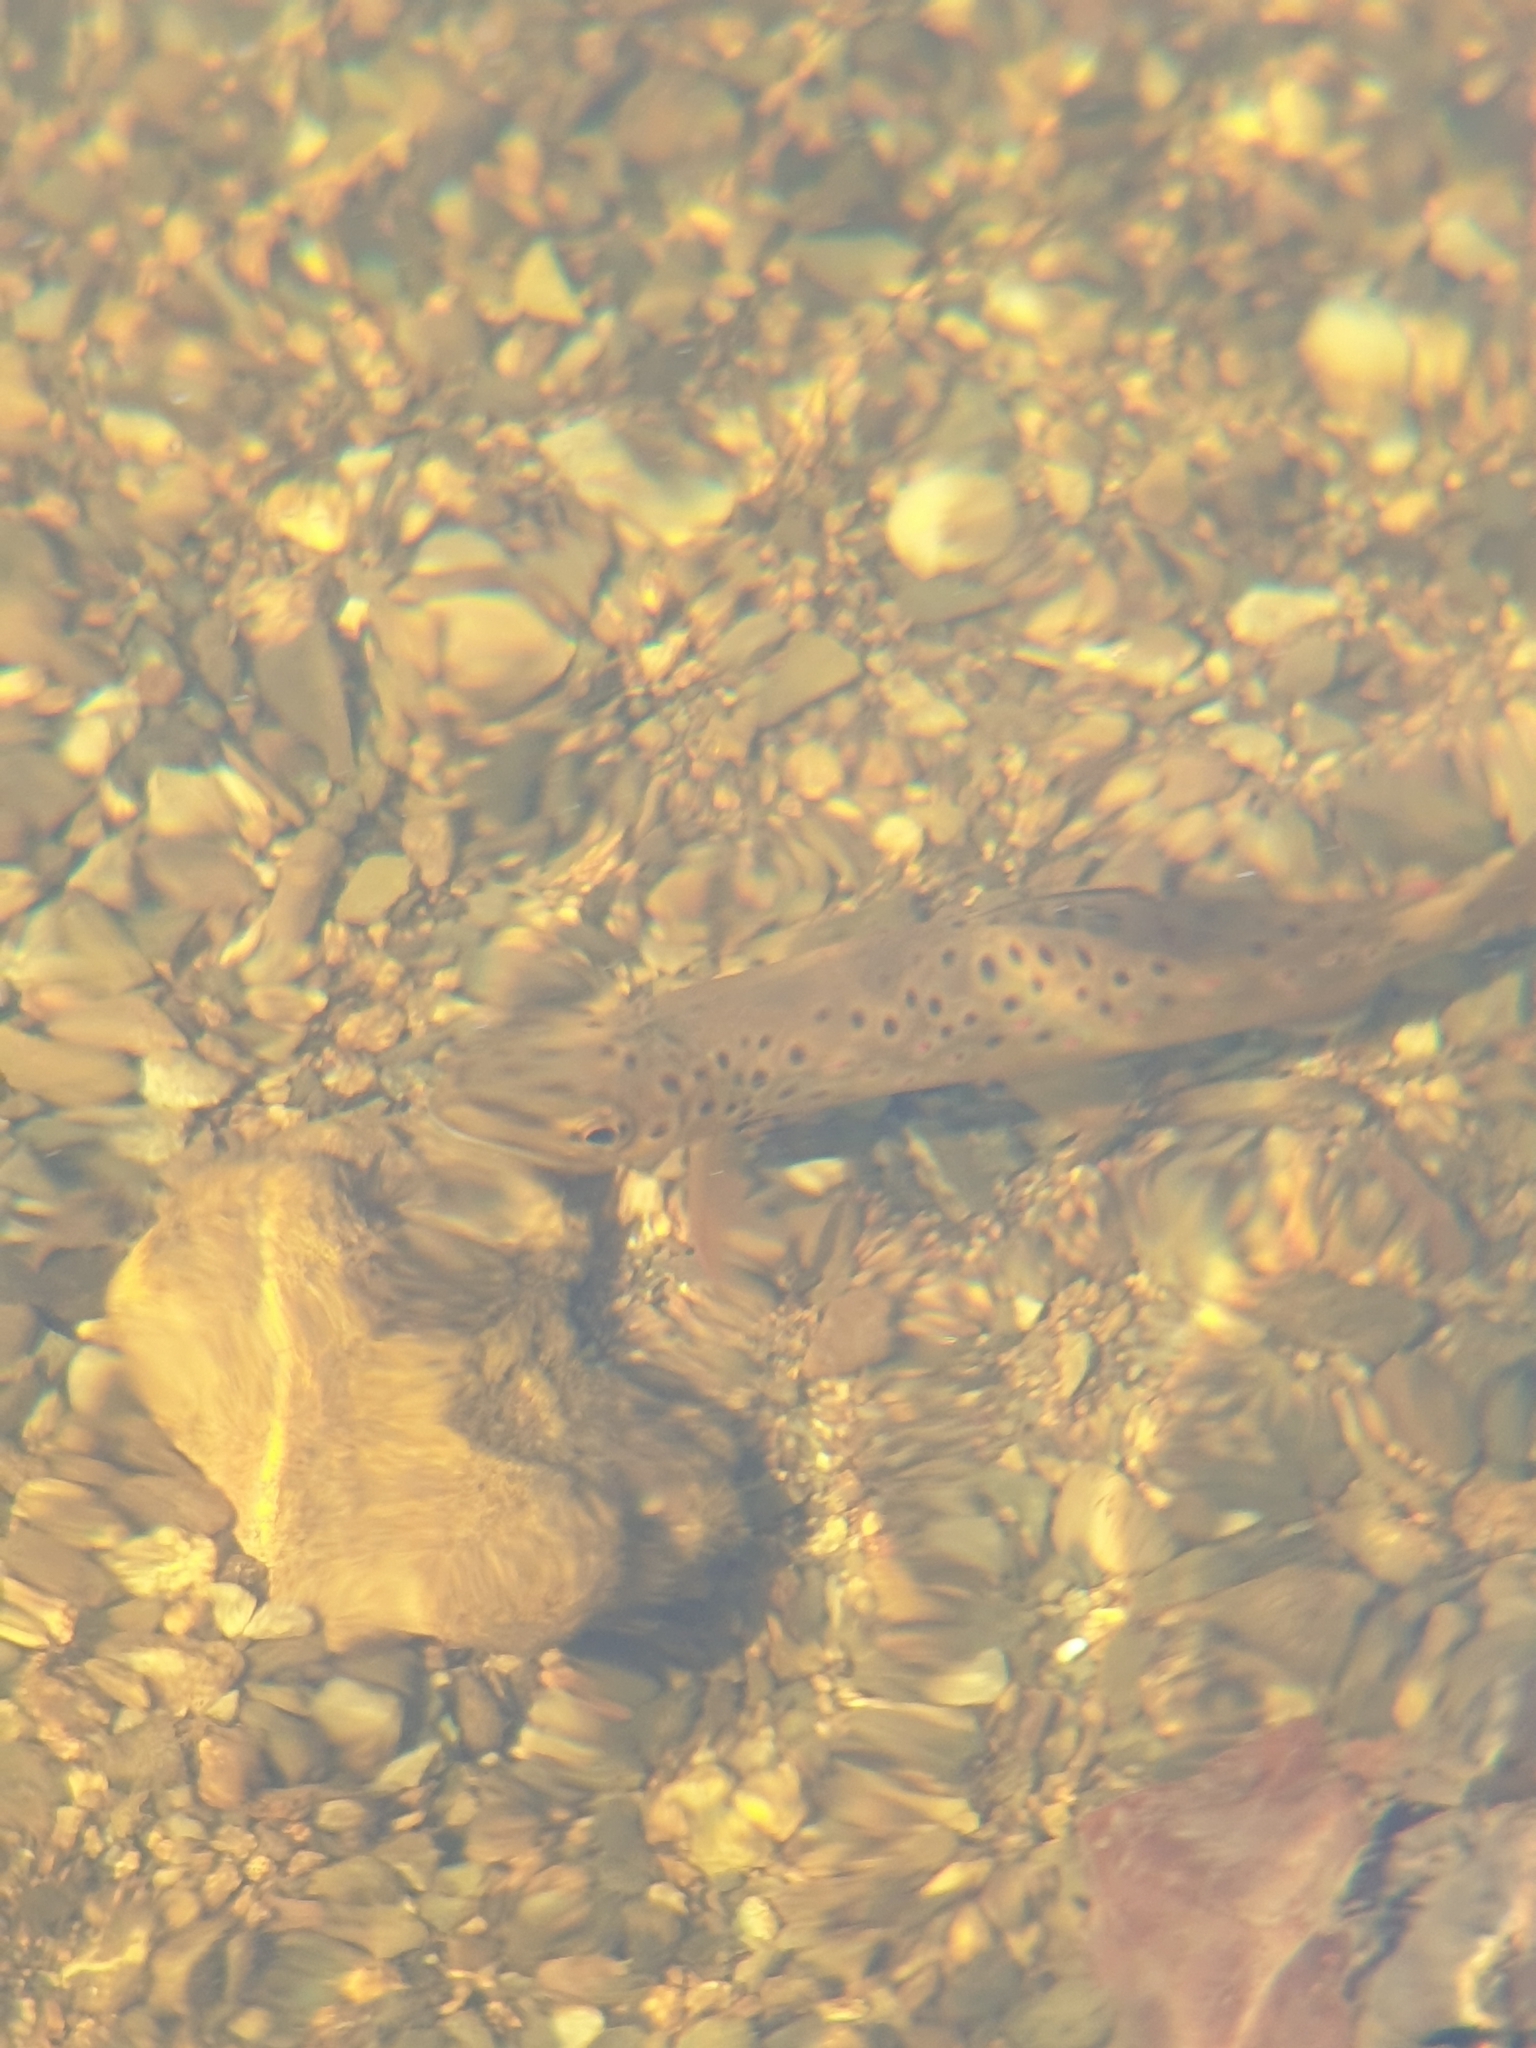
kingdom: Animalia
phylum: Chordata
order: Salmoniformes
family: Salmonidae
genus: Salmo
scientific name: Salmo trutta
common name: Brown trout
